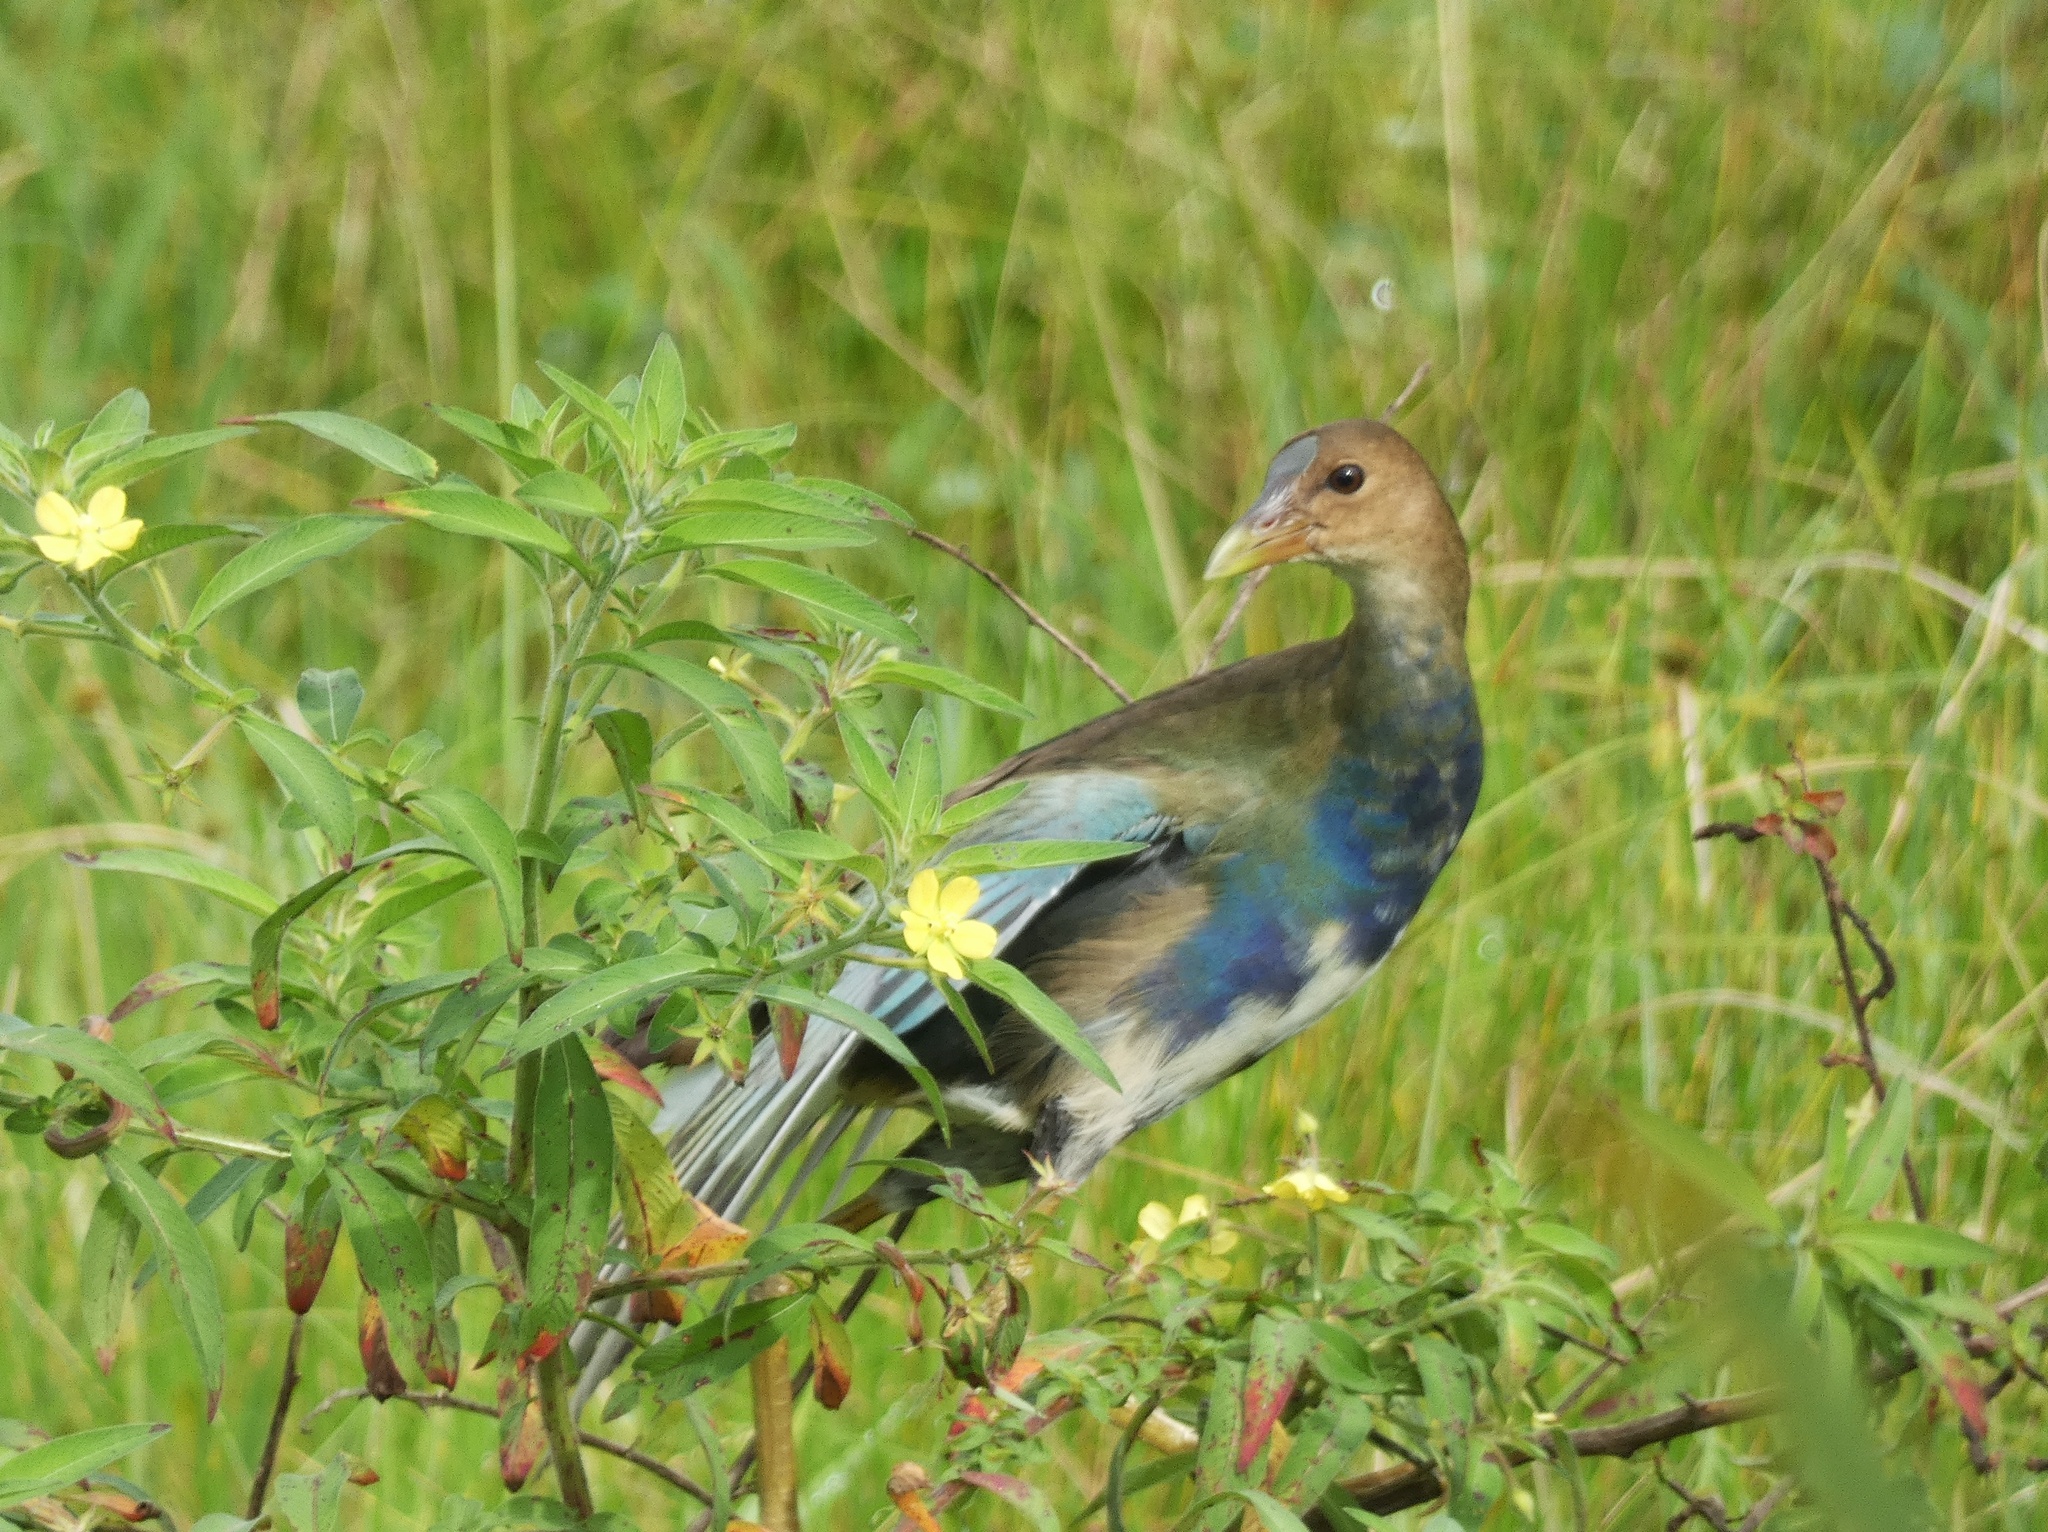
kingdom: Animalia
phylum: Chordata
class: Aves
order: Gruiformes
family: Rallidae
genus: Porphyrio
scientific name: Porphyrio martinica
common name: Purple gallinule
